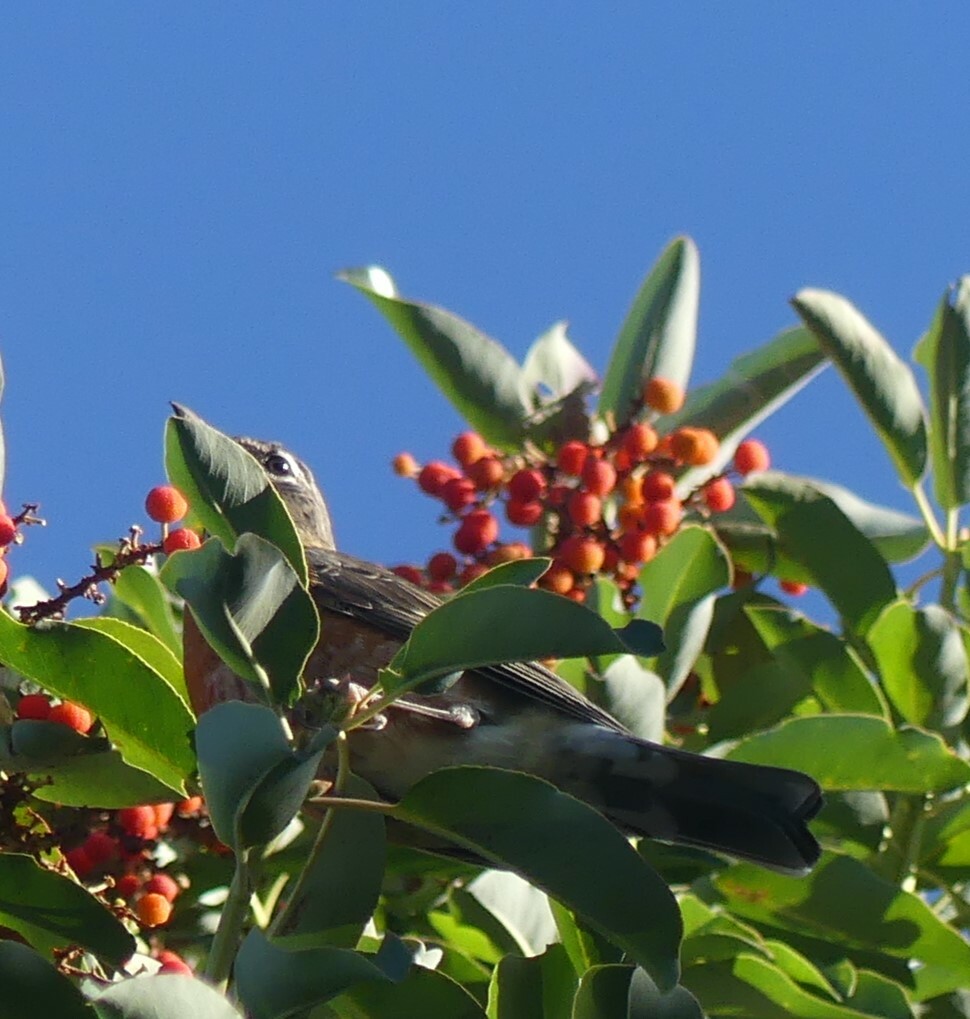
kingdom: Animalia
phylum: Chordata
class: Aves
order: Passeriformes
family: Turdidae
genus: Turdus
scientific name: Turdus migratorius
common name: American robin
